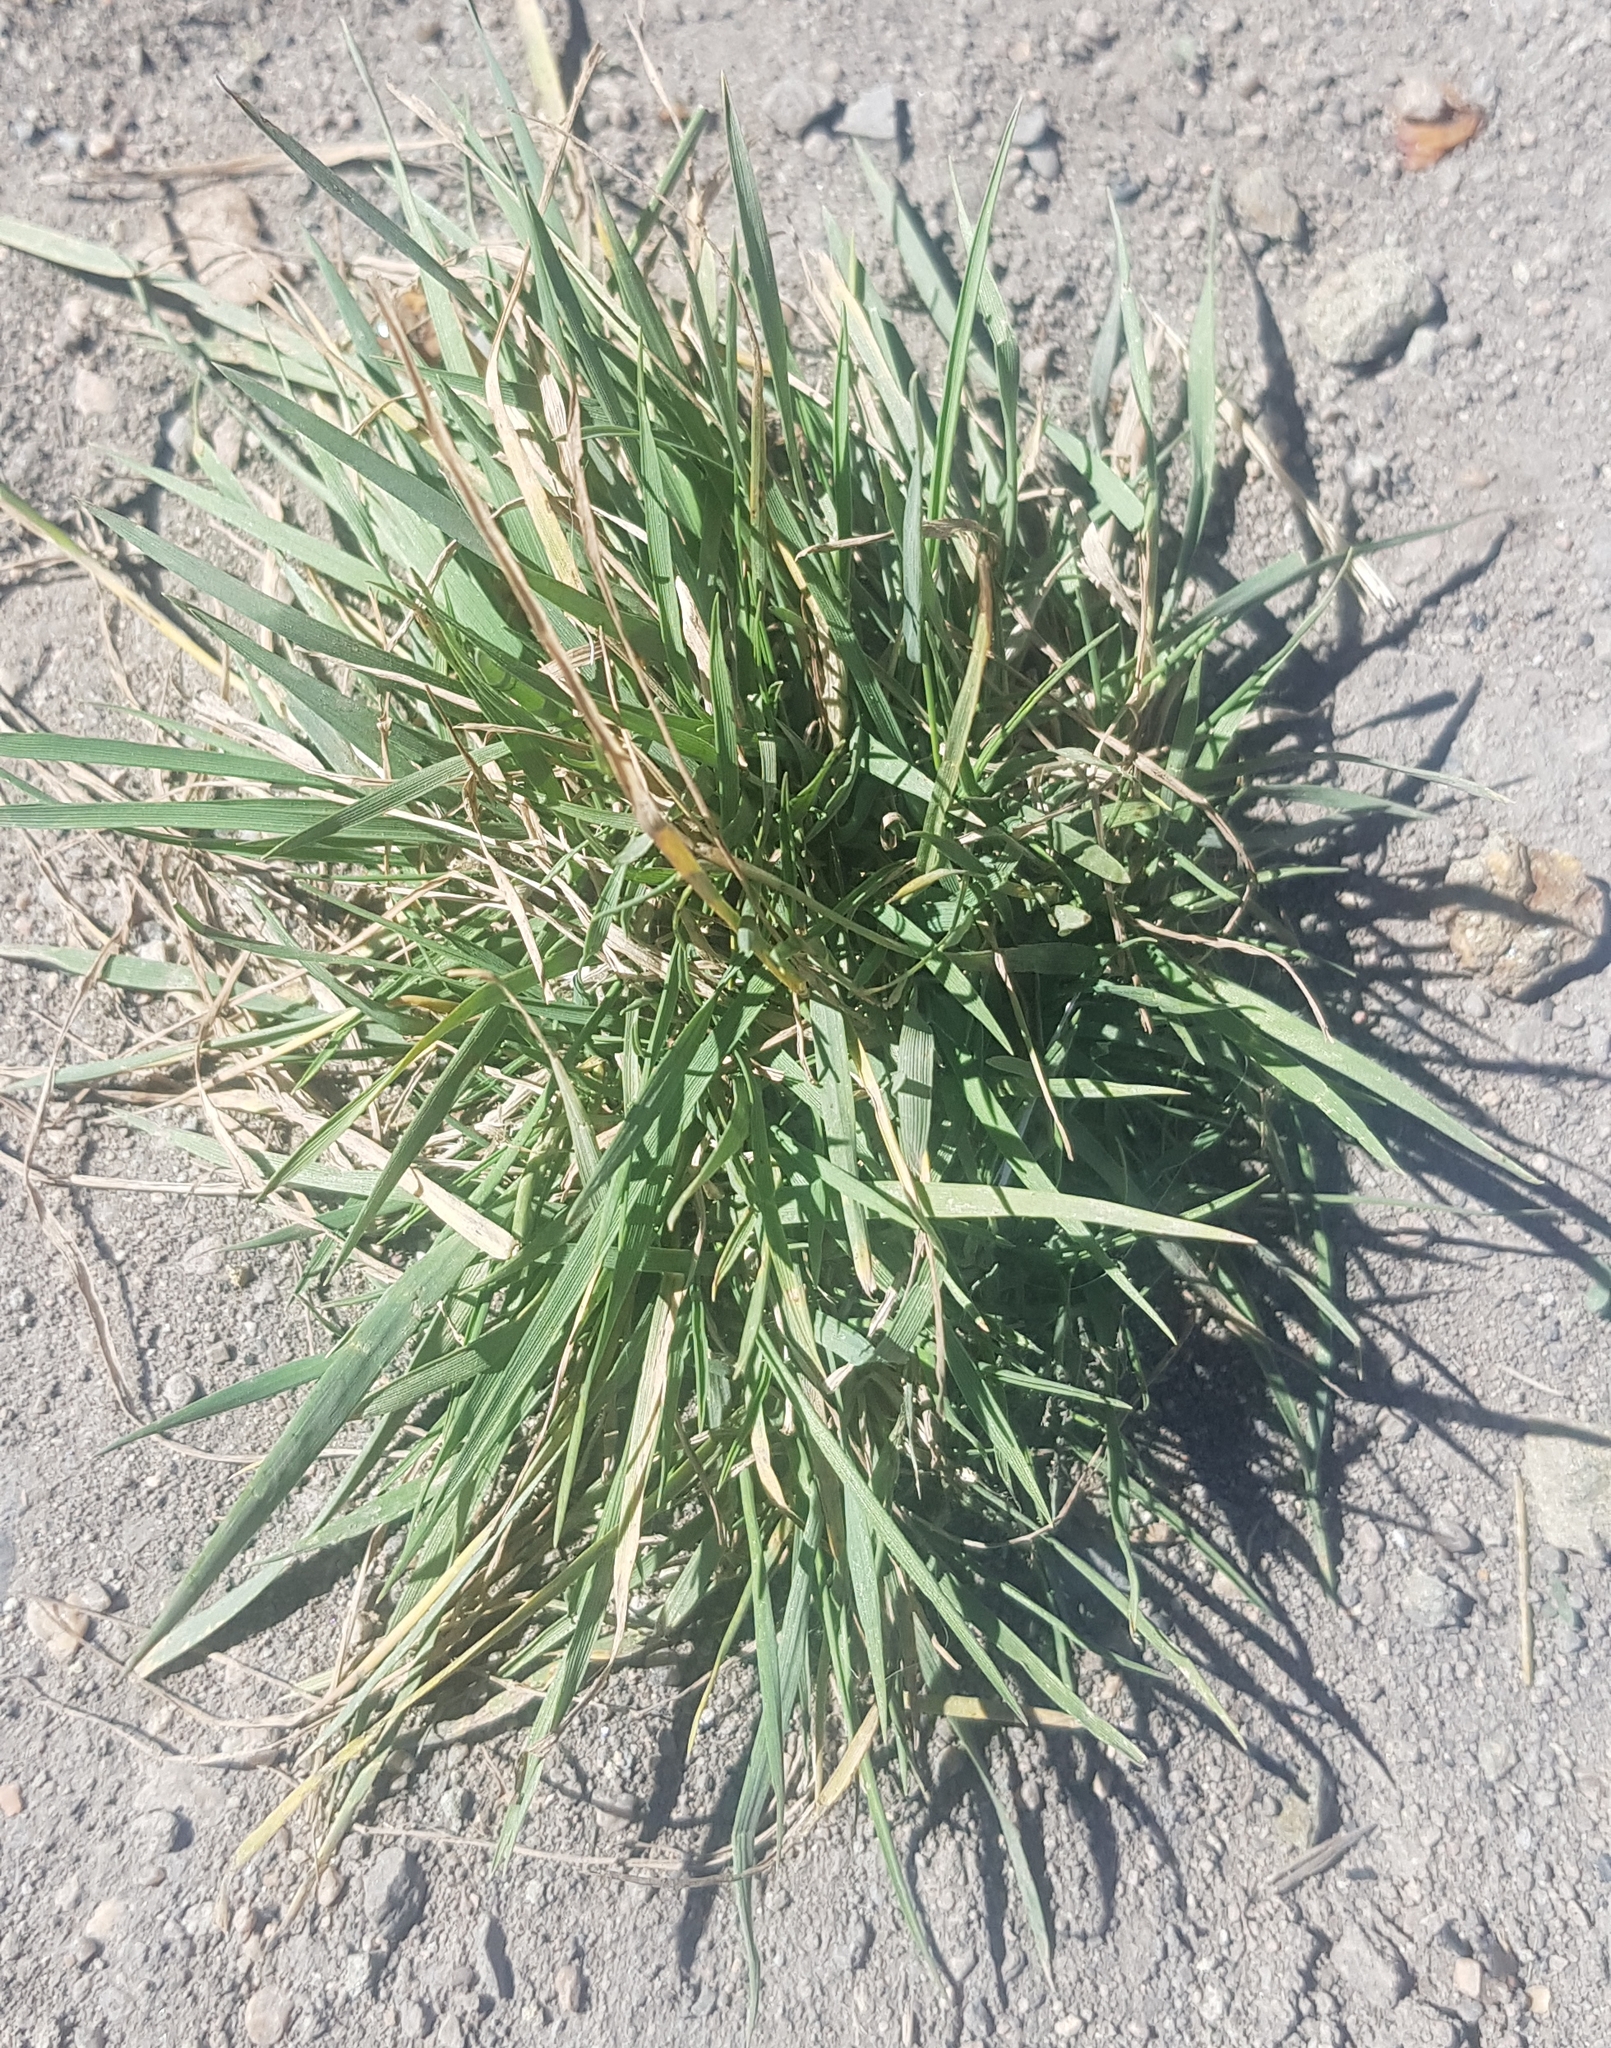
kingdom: Plantae
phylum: Tracheophyta
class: Liliopsida
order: Poales
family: Poaceae
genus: Chloris
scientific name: Chloris virgata
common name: Feathery rhodes-grass
